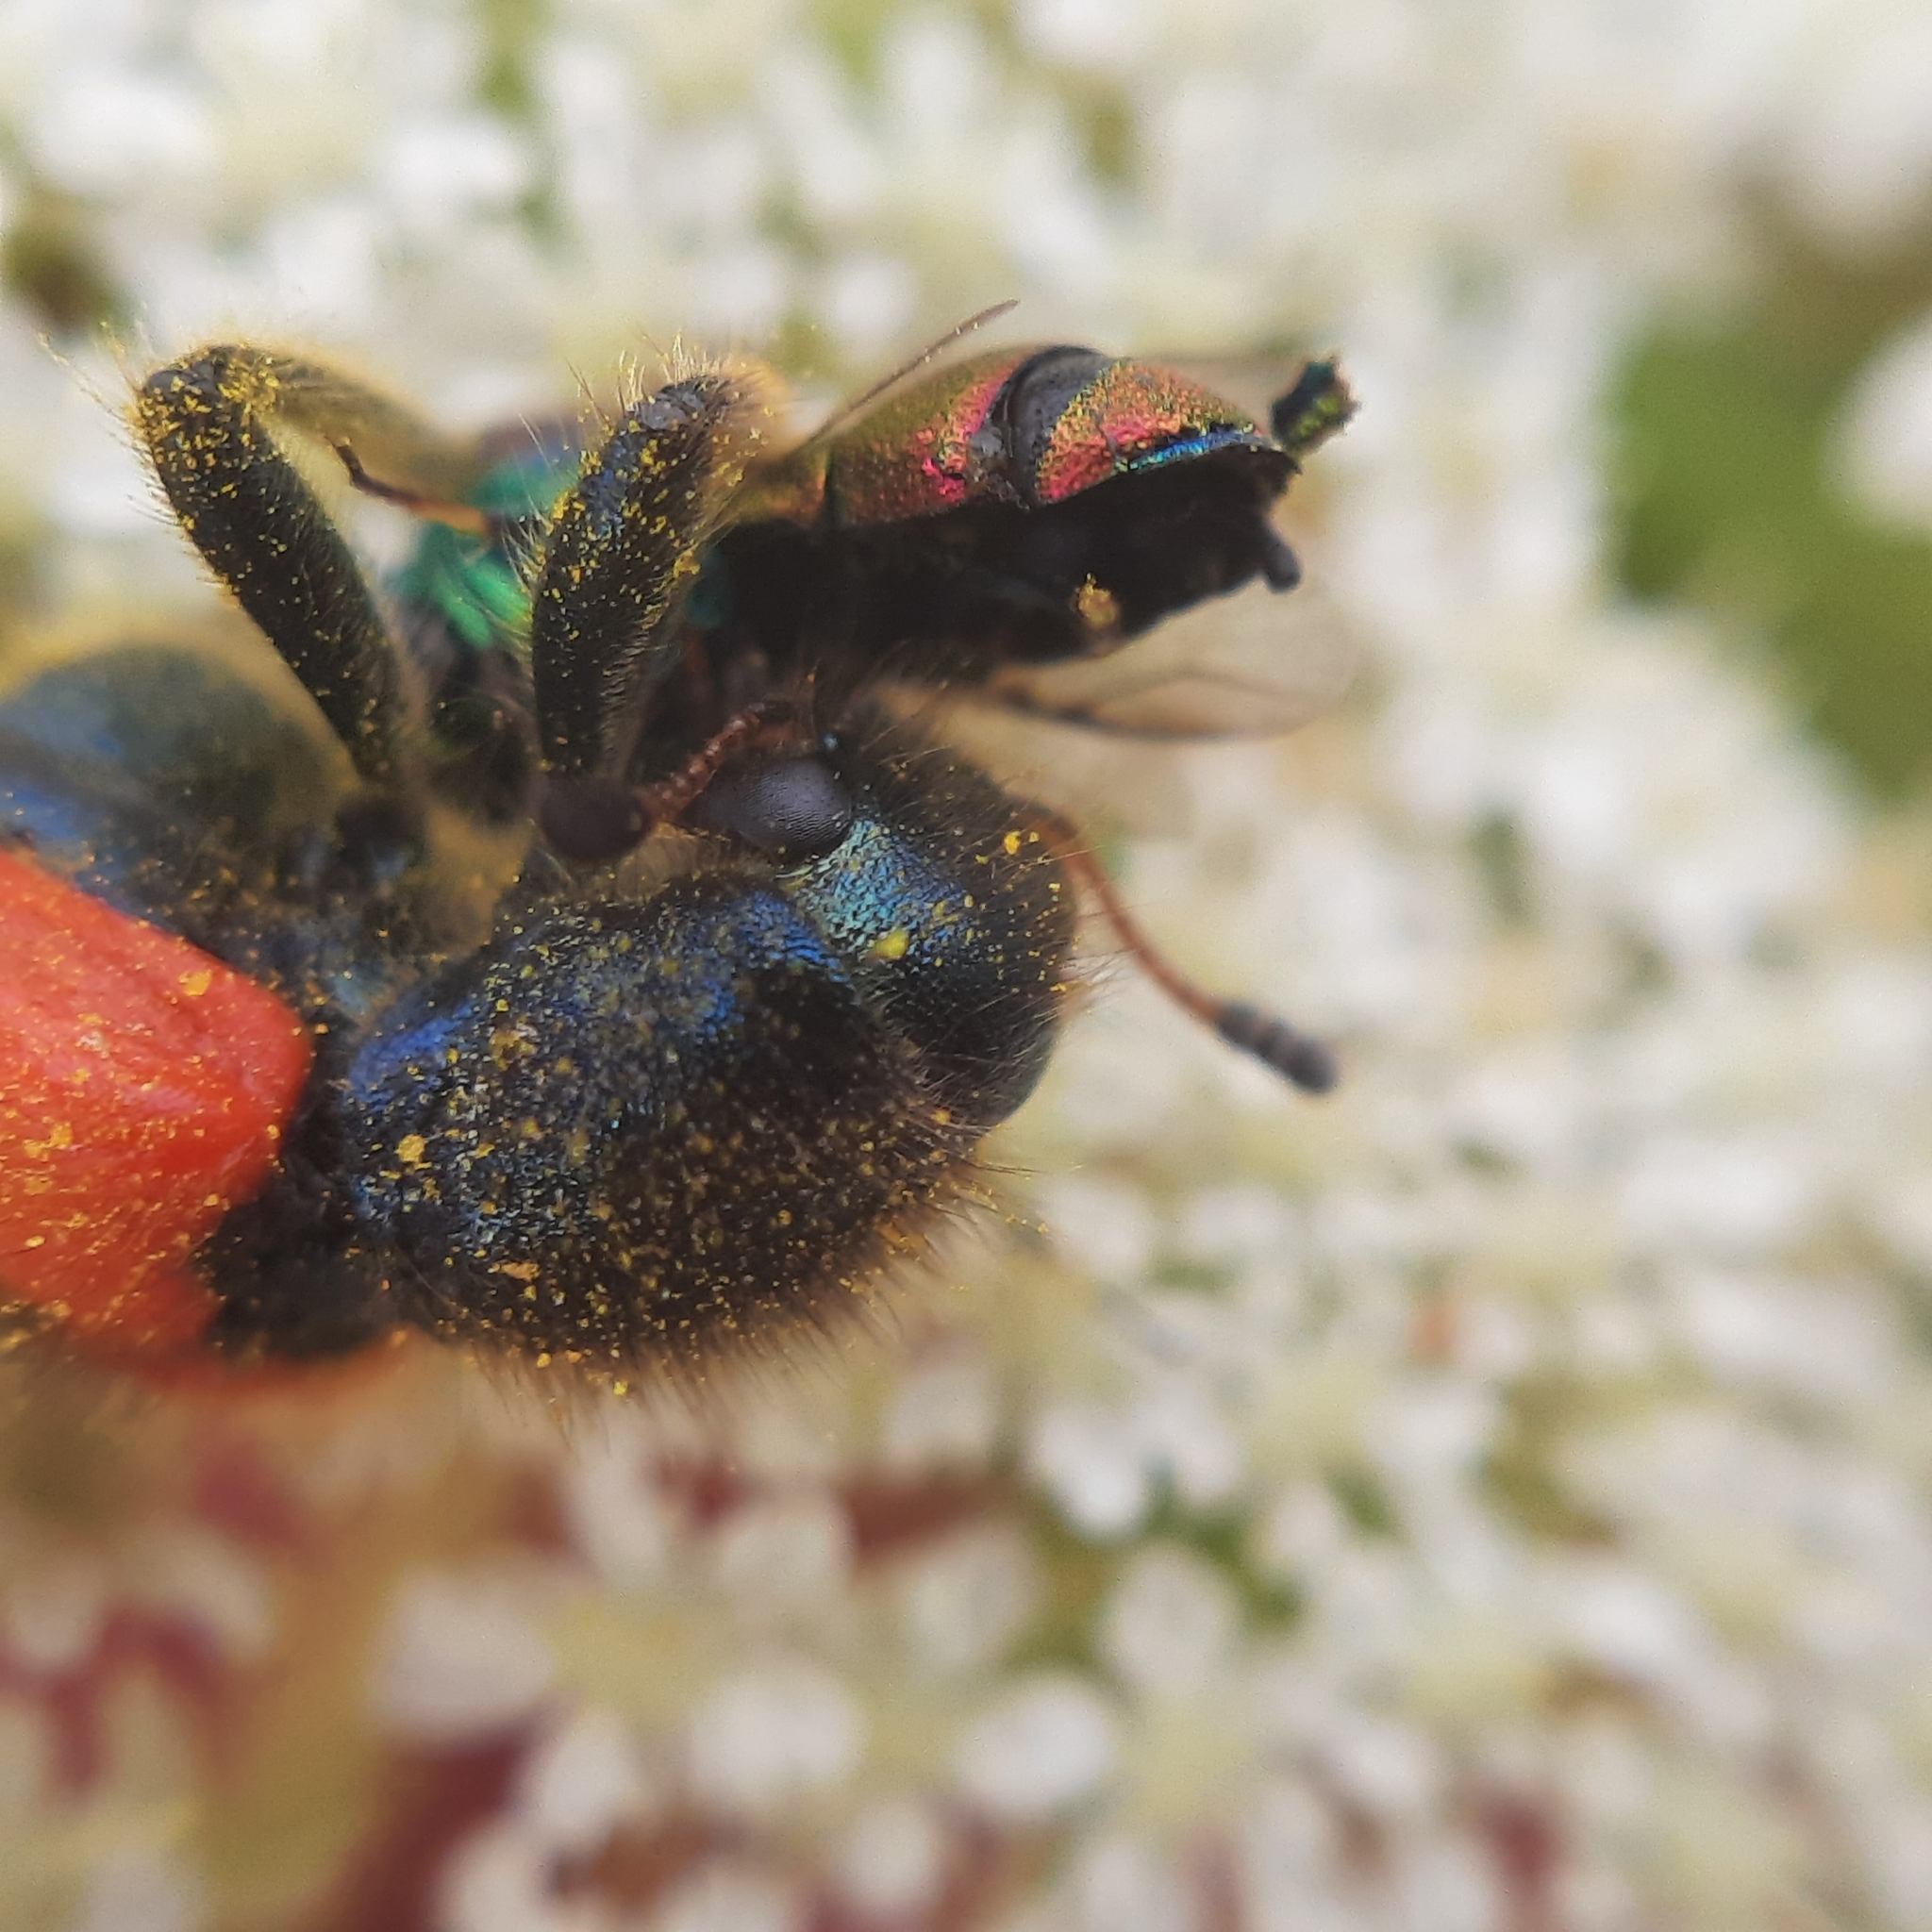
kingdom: Animalia
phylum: Arthropoda
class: Insecta
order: Hymenoptera
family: Chrysididae
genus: Chrysis
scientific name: Chrysis scutellaris
